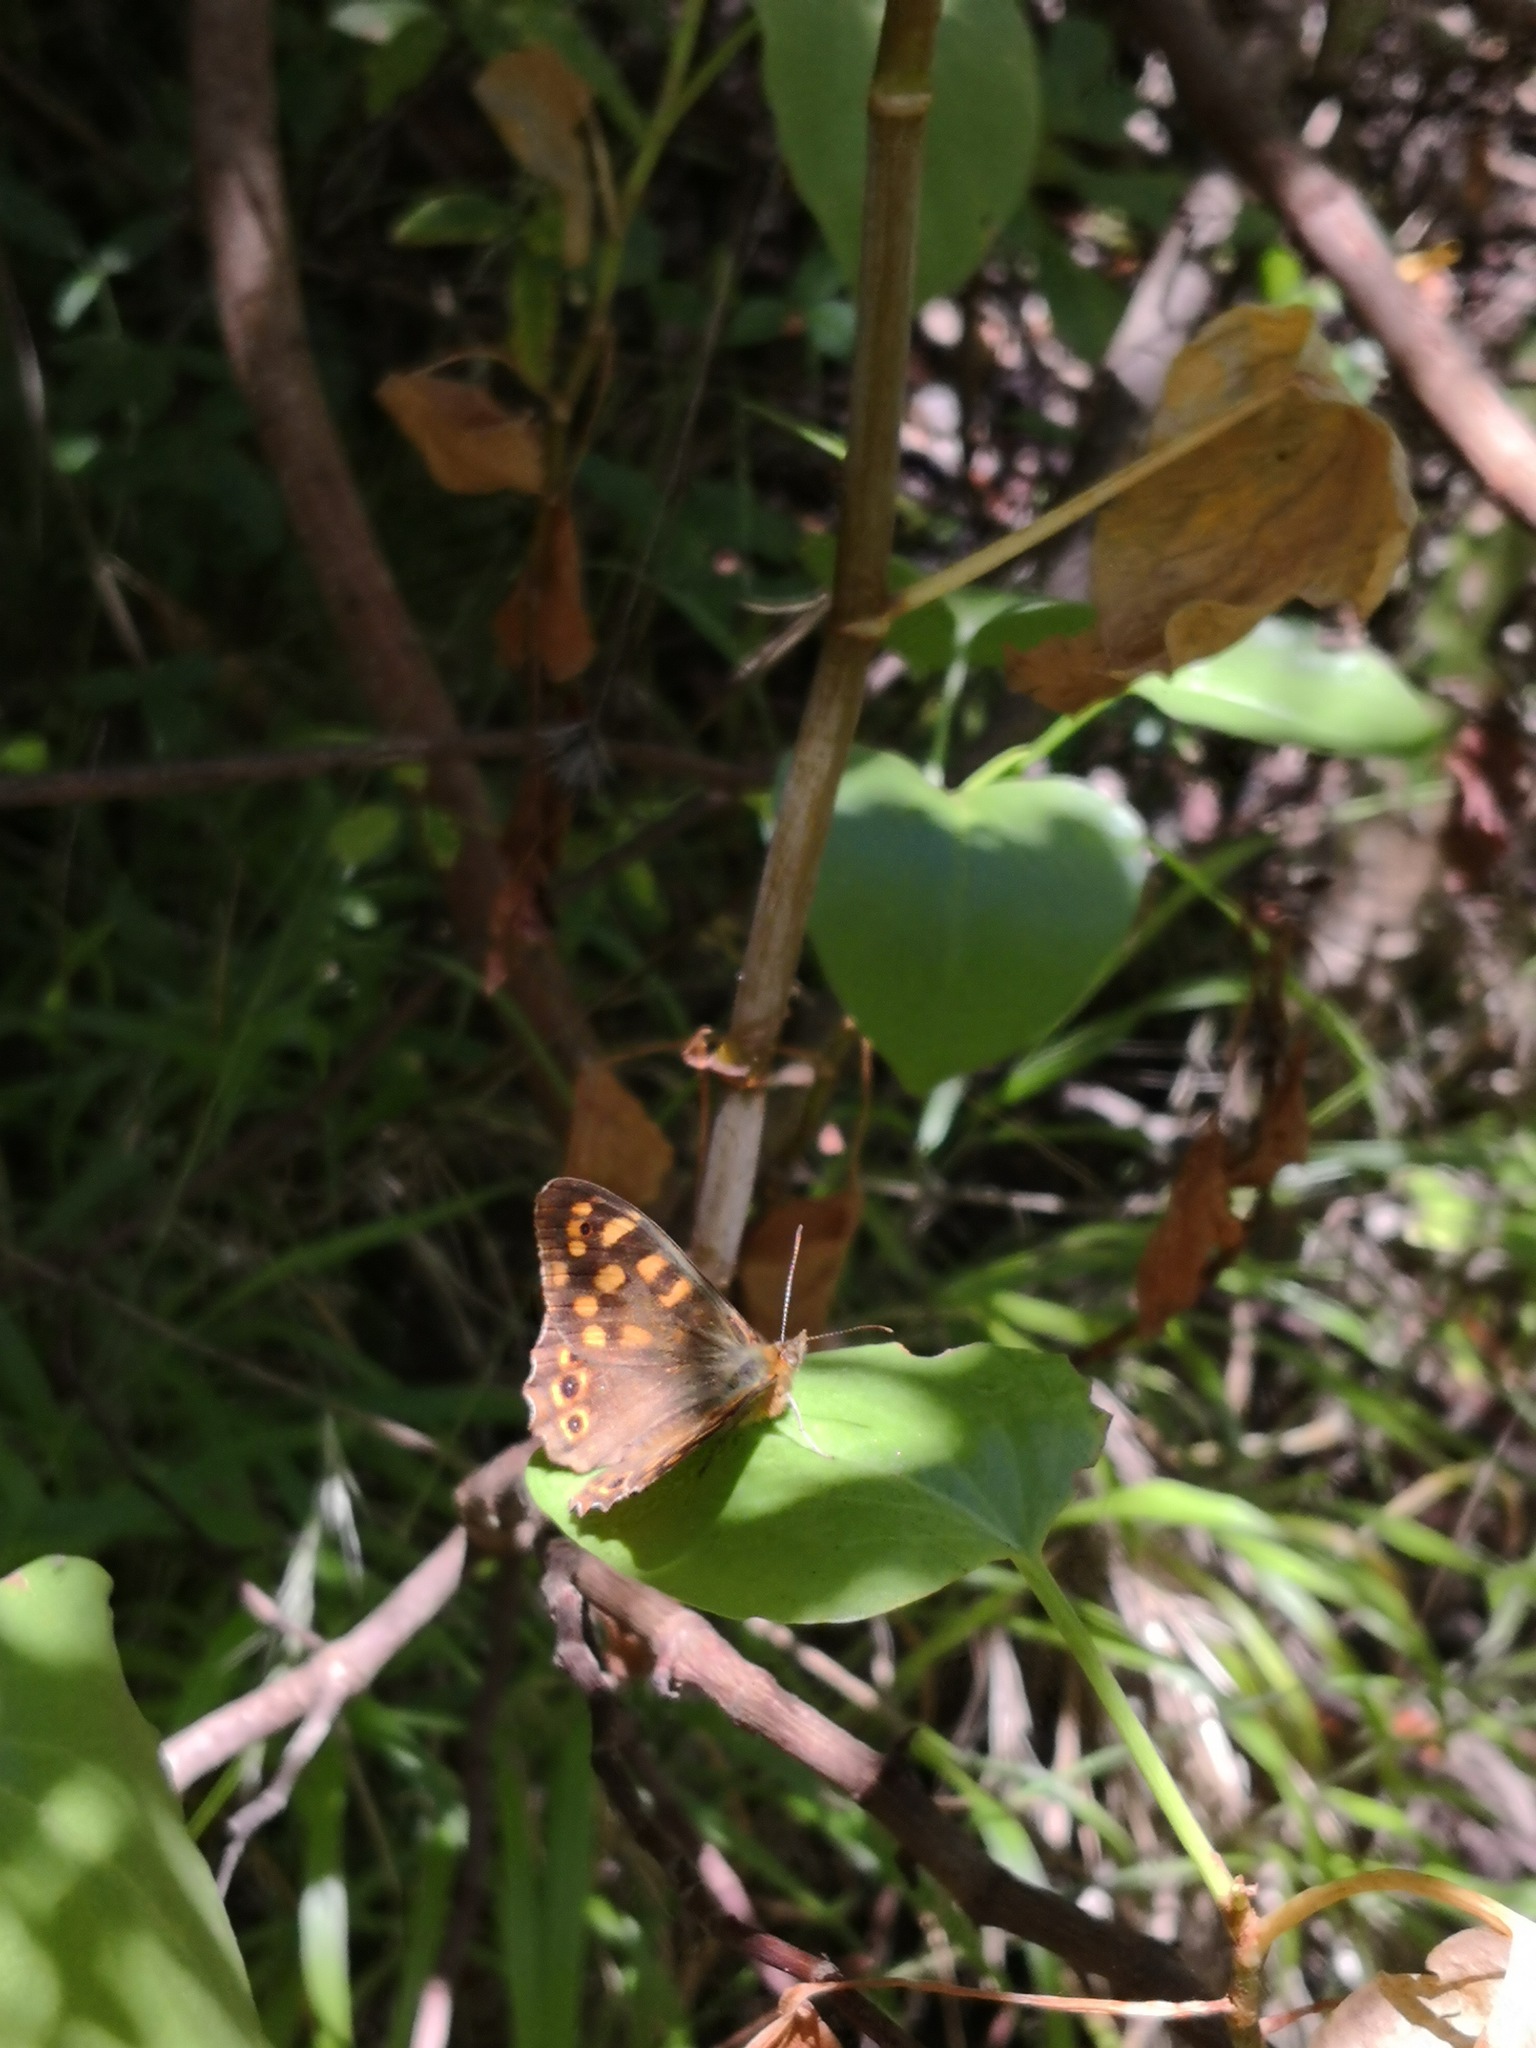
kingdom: Animalia
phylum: Arthropoda
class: Insecta
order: Lepidoptera
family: Nymphalidae
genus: Pararge
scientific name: Pararge aegeria
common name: Speckled wood
